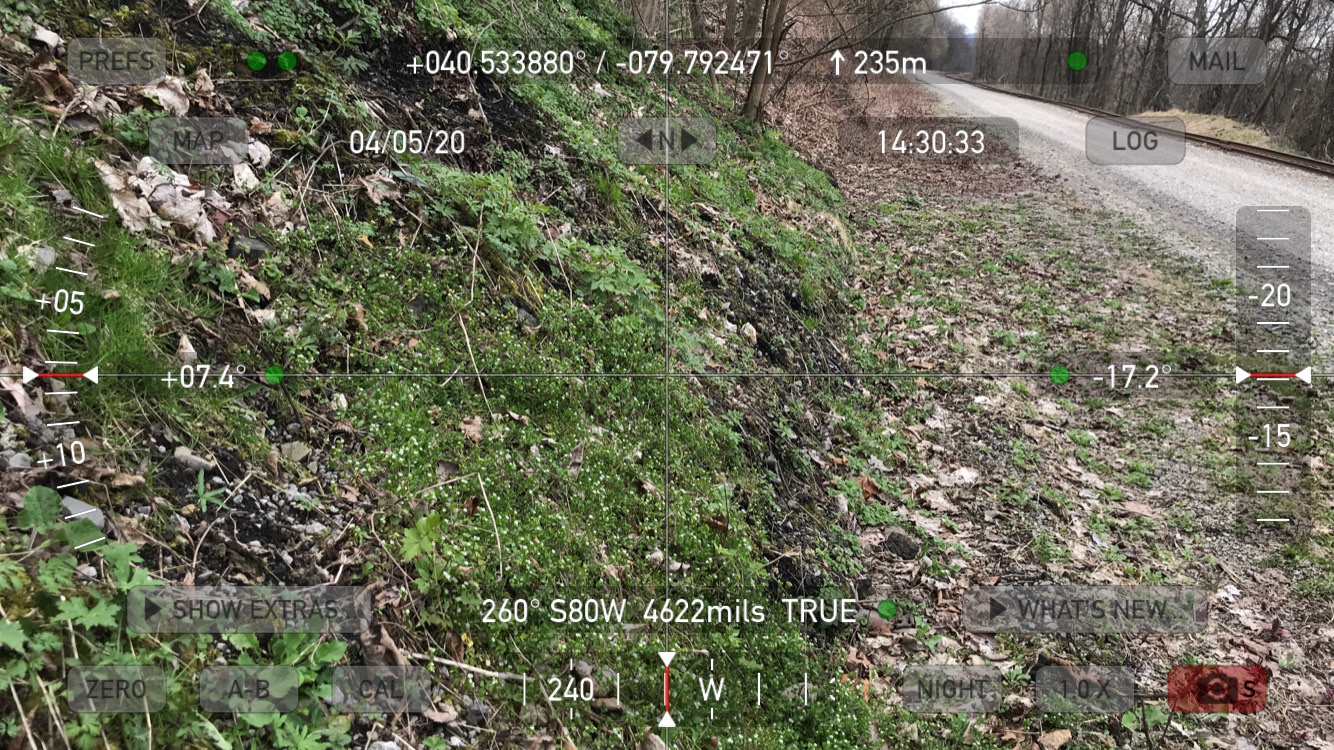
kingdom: Plantae
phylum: Tracheophyta
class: Magnoliopsida
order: Caryophyllales
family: Caryophyllaceae
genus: Stellaria
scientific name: Stellaria media
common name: Common chickweed
